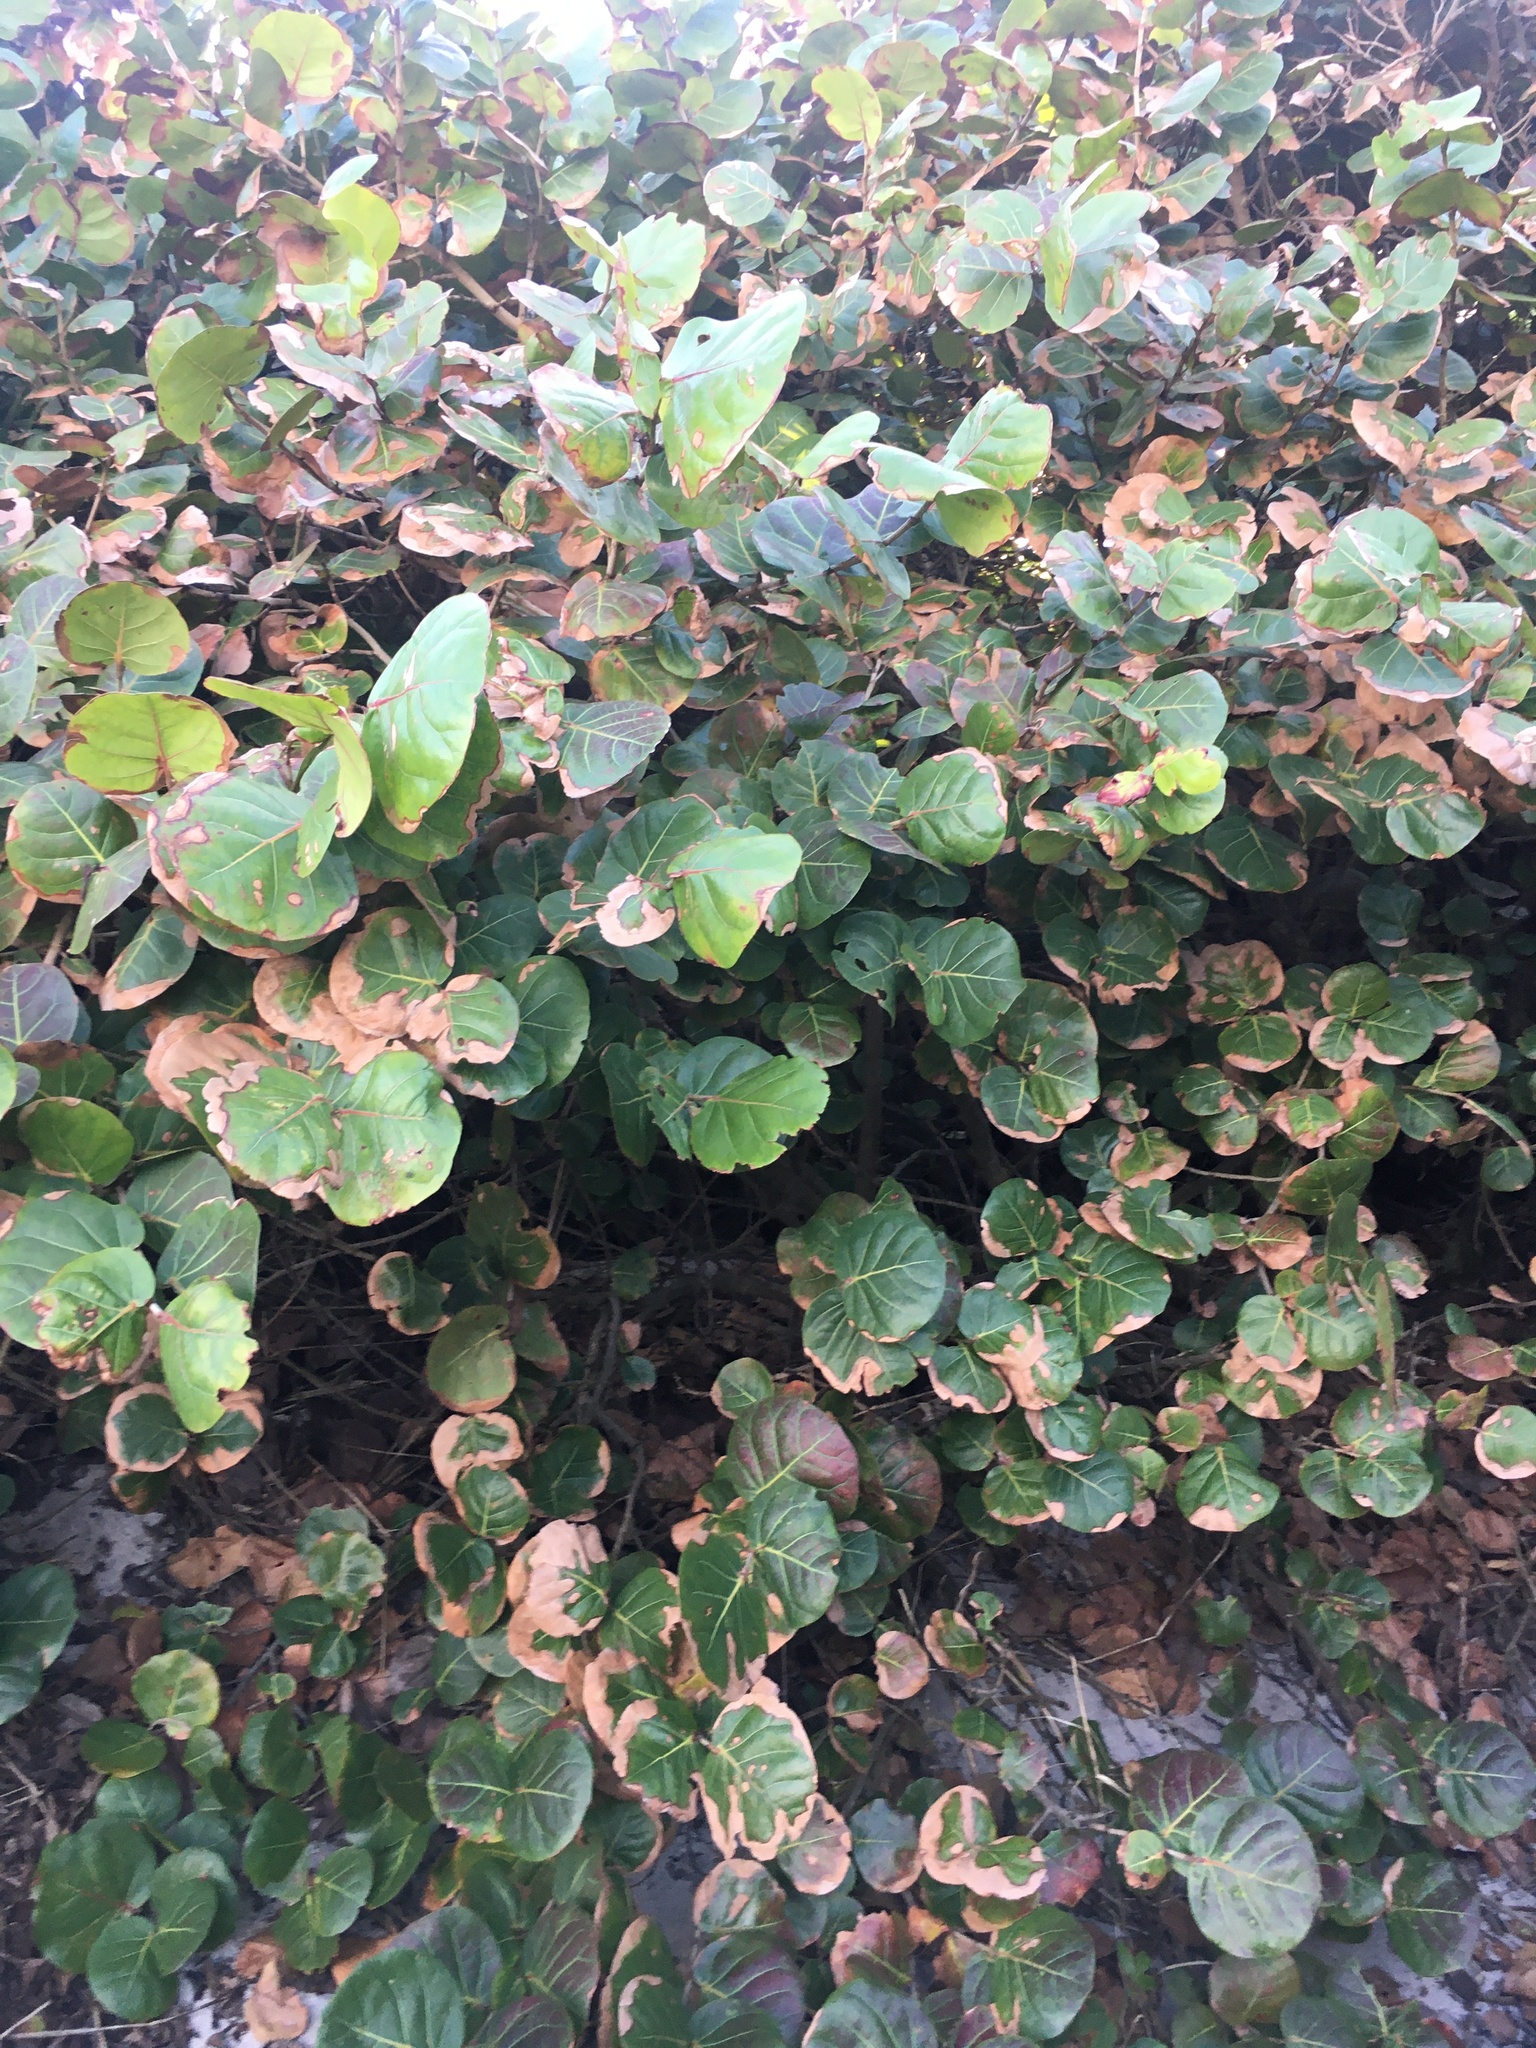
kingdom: Plantae
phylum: Tracheophyta
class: Magnoliopsida
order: Caryophyllales
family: Polygonaceae
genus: Coccoloba
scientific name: Coccoloba uvifera
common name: Seagrape
